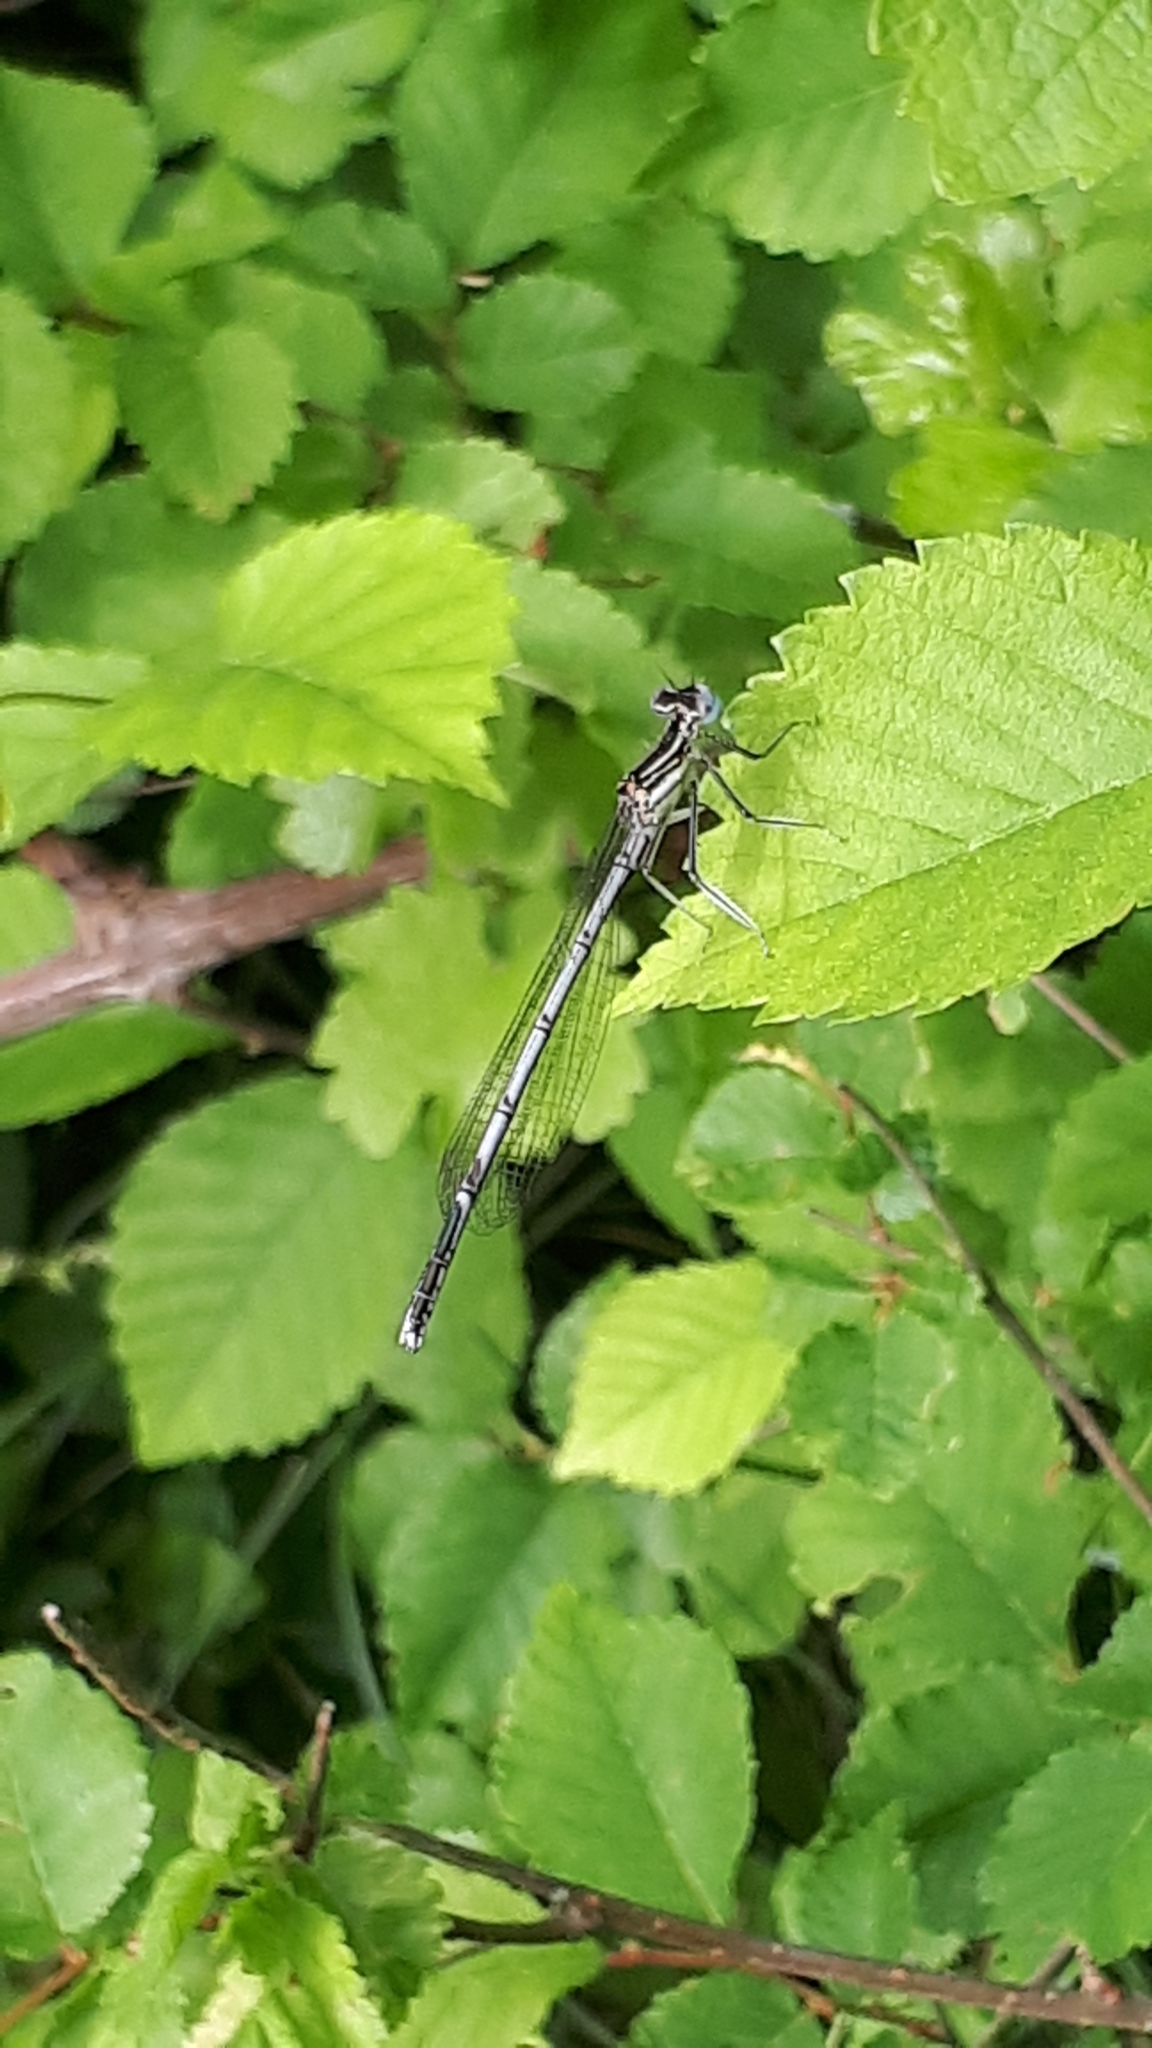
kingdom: Animalia
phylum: Arthropoda
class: Insecta
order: Odonata
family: Platycnemididae
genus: Platycnemis
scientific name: Platycnemis pennipes
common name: White-legged damselfly
